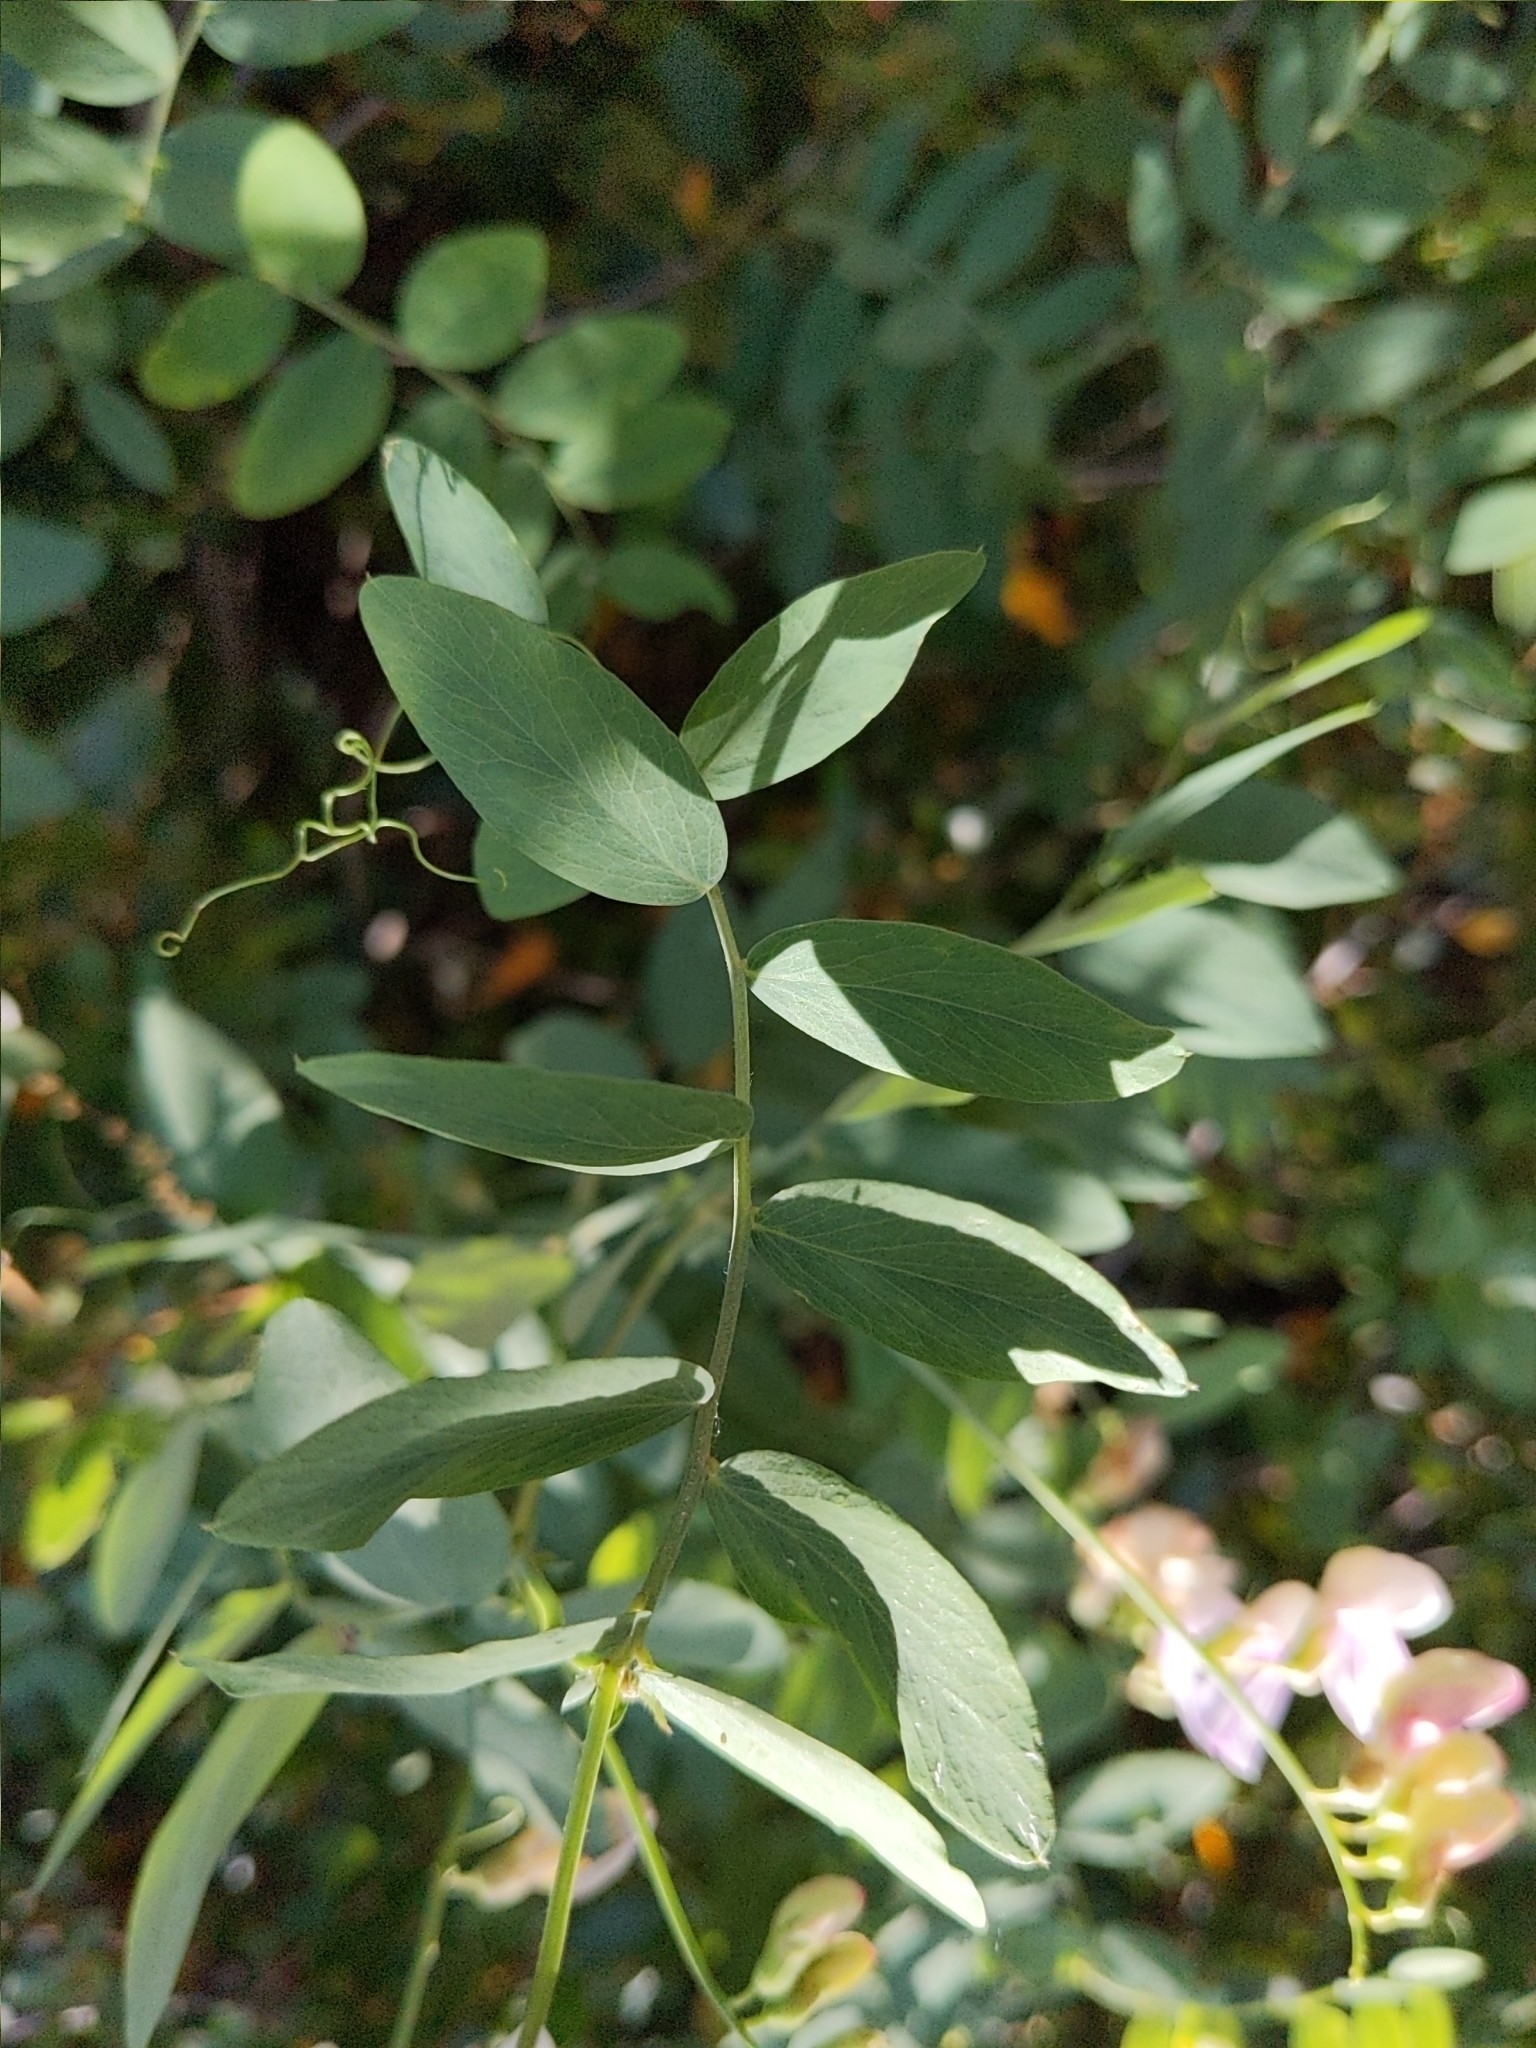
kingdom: Plantae
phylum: Tracheophyta
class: Magnoliopsida
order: Fabales
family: Fabaceae
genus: Lathyrus
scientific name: Lathyrus vestitus
